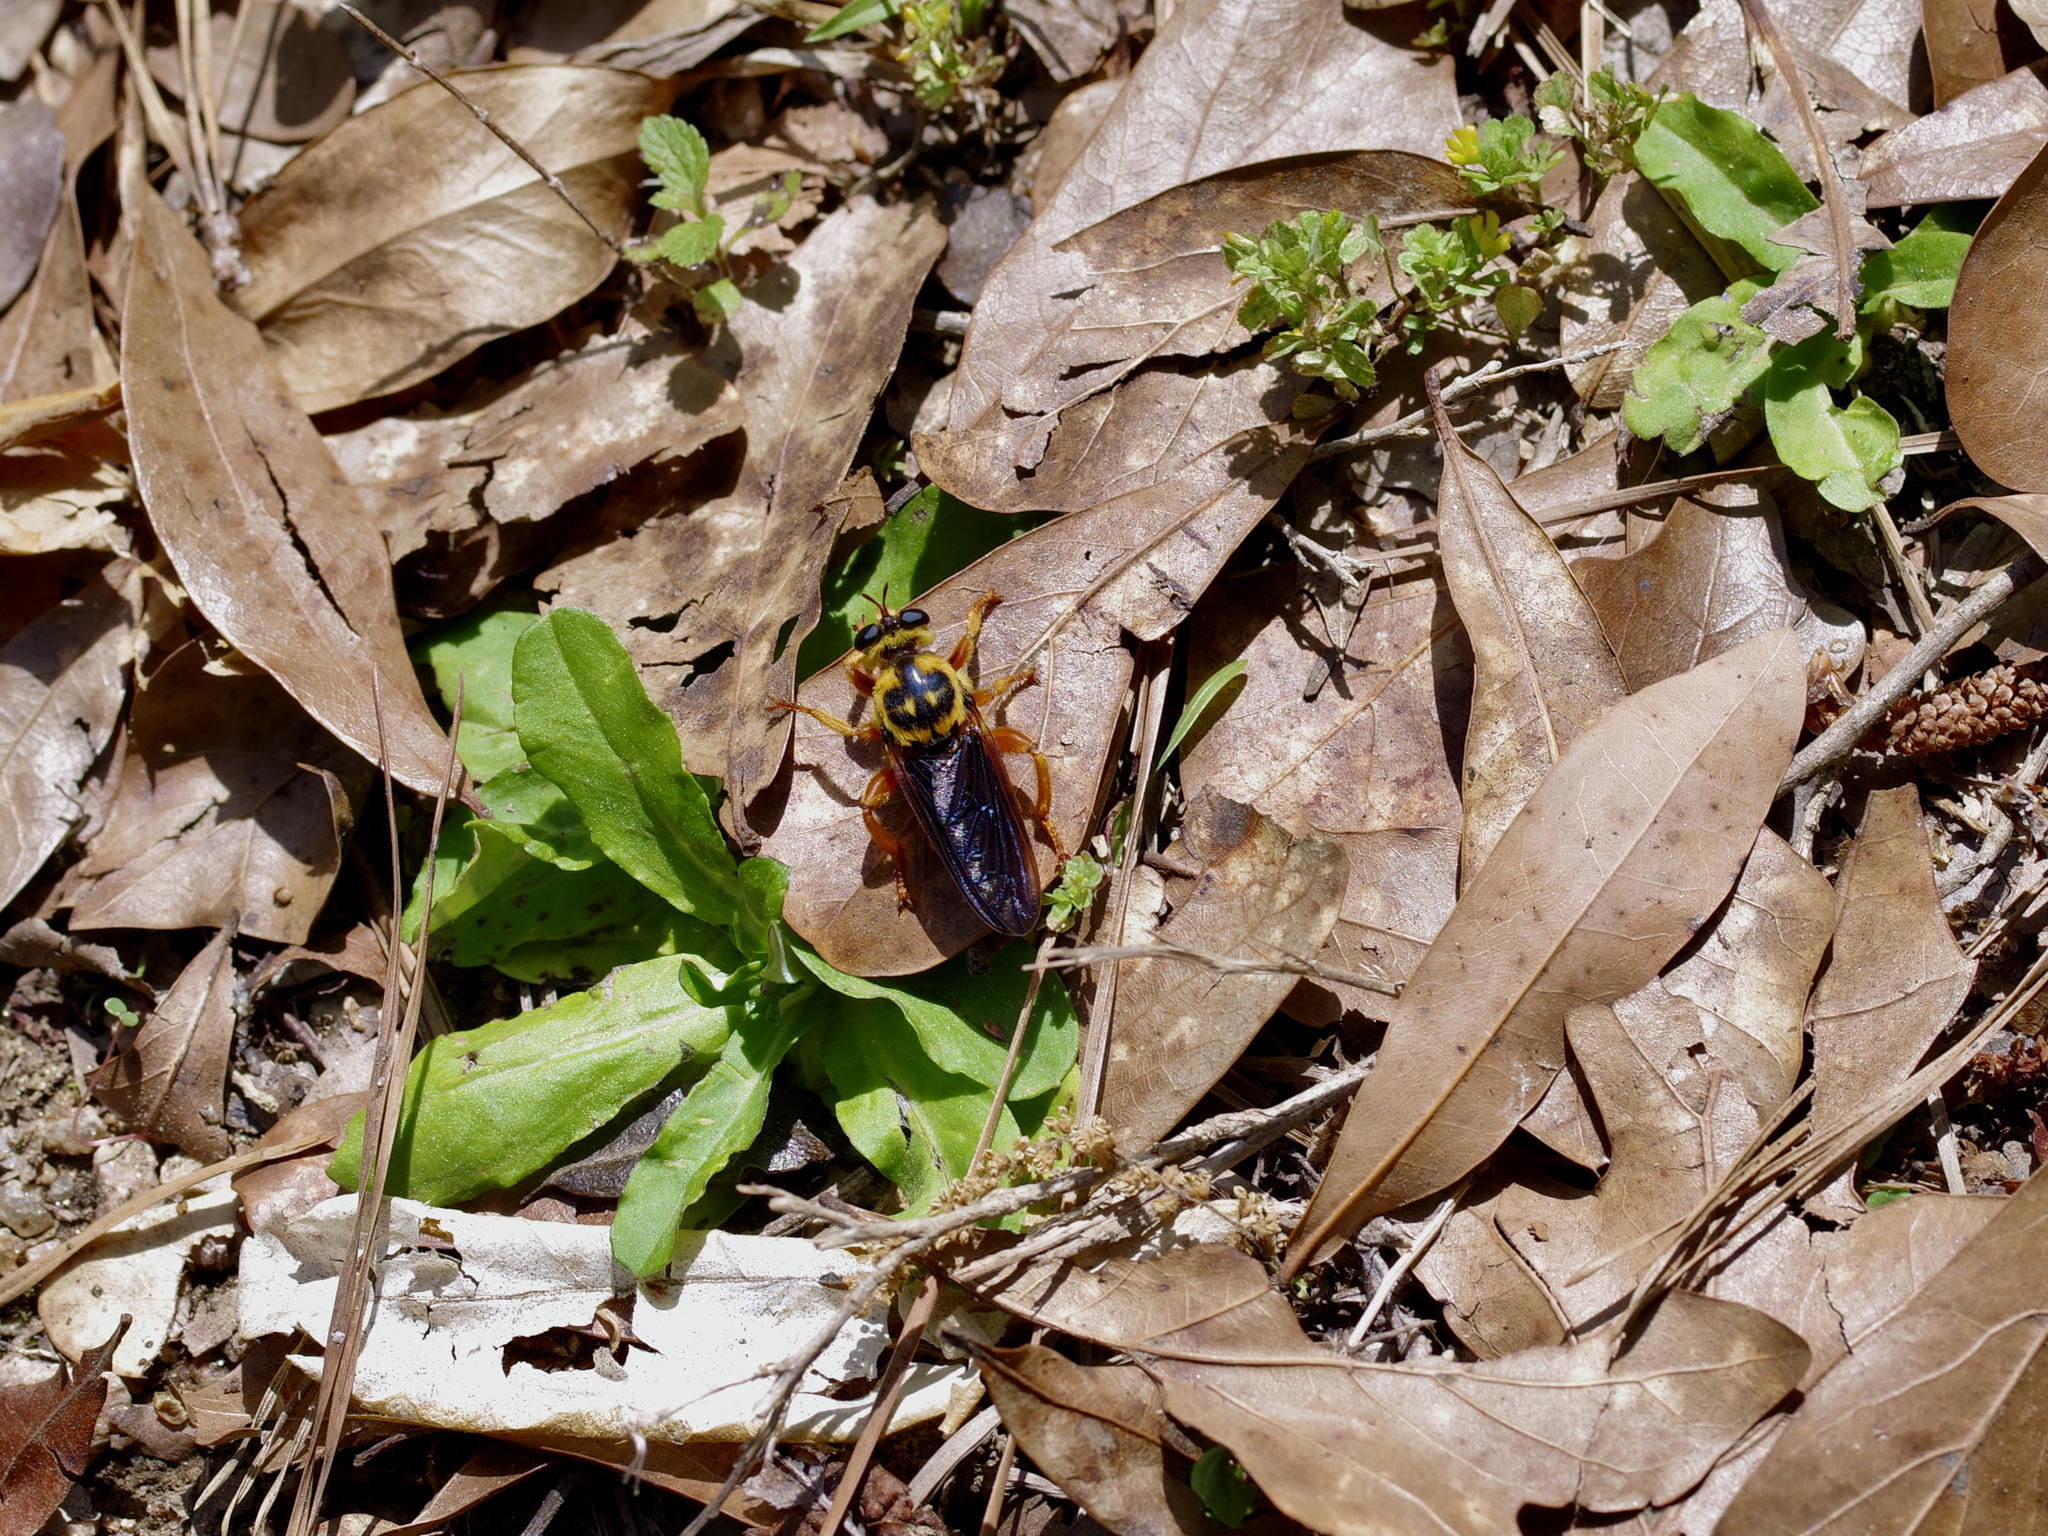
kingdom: Animalia
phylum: Arthropoda
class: Insecta
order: Diptera
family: Asilidae
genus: Laphria
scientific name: Laphria saffrana
